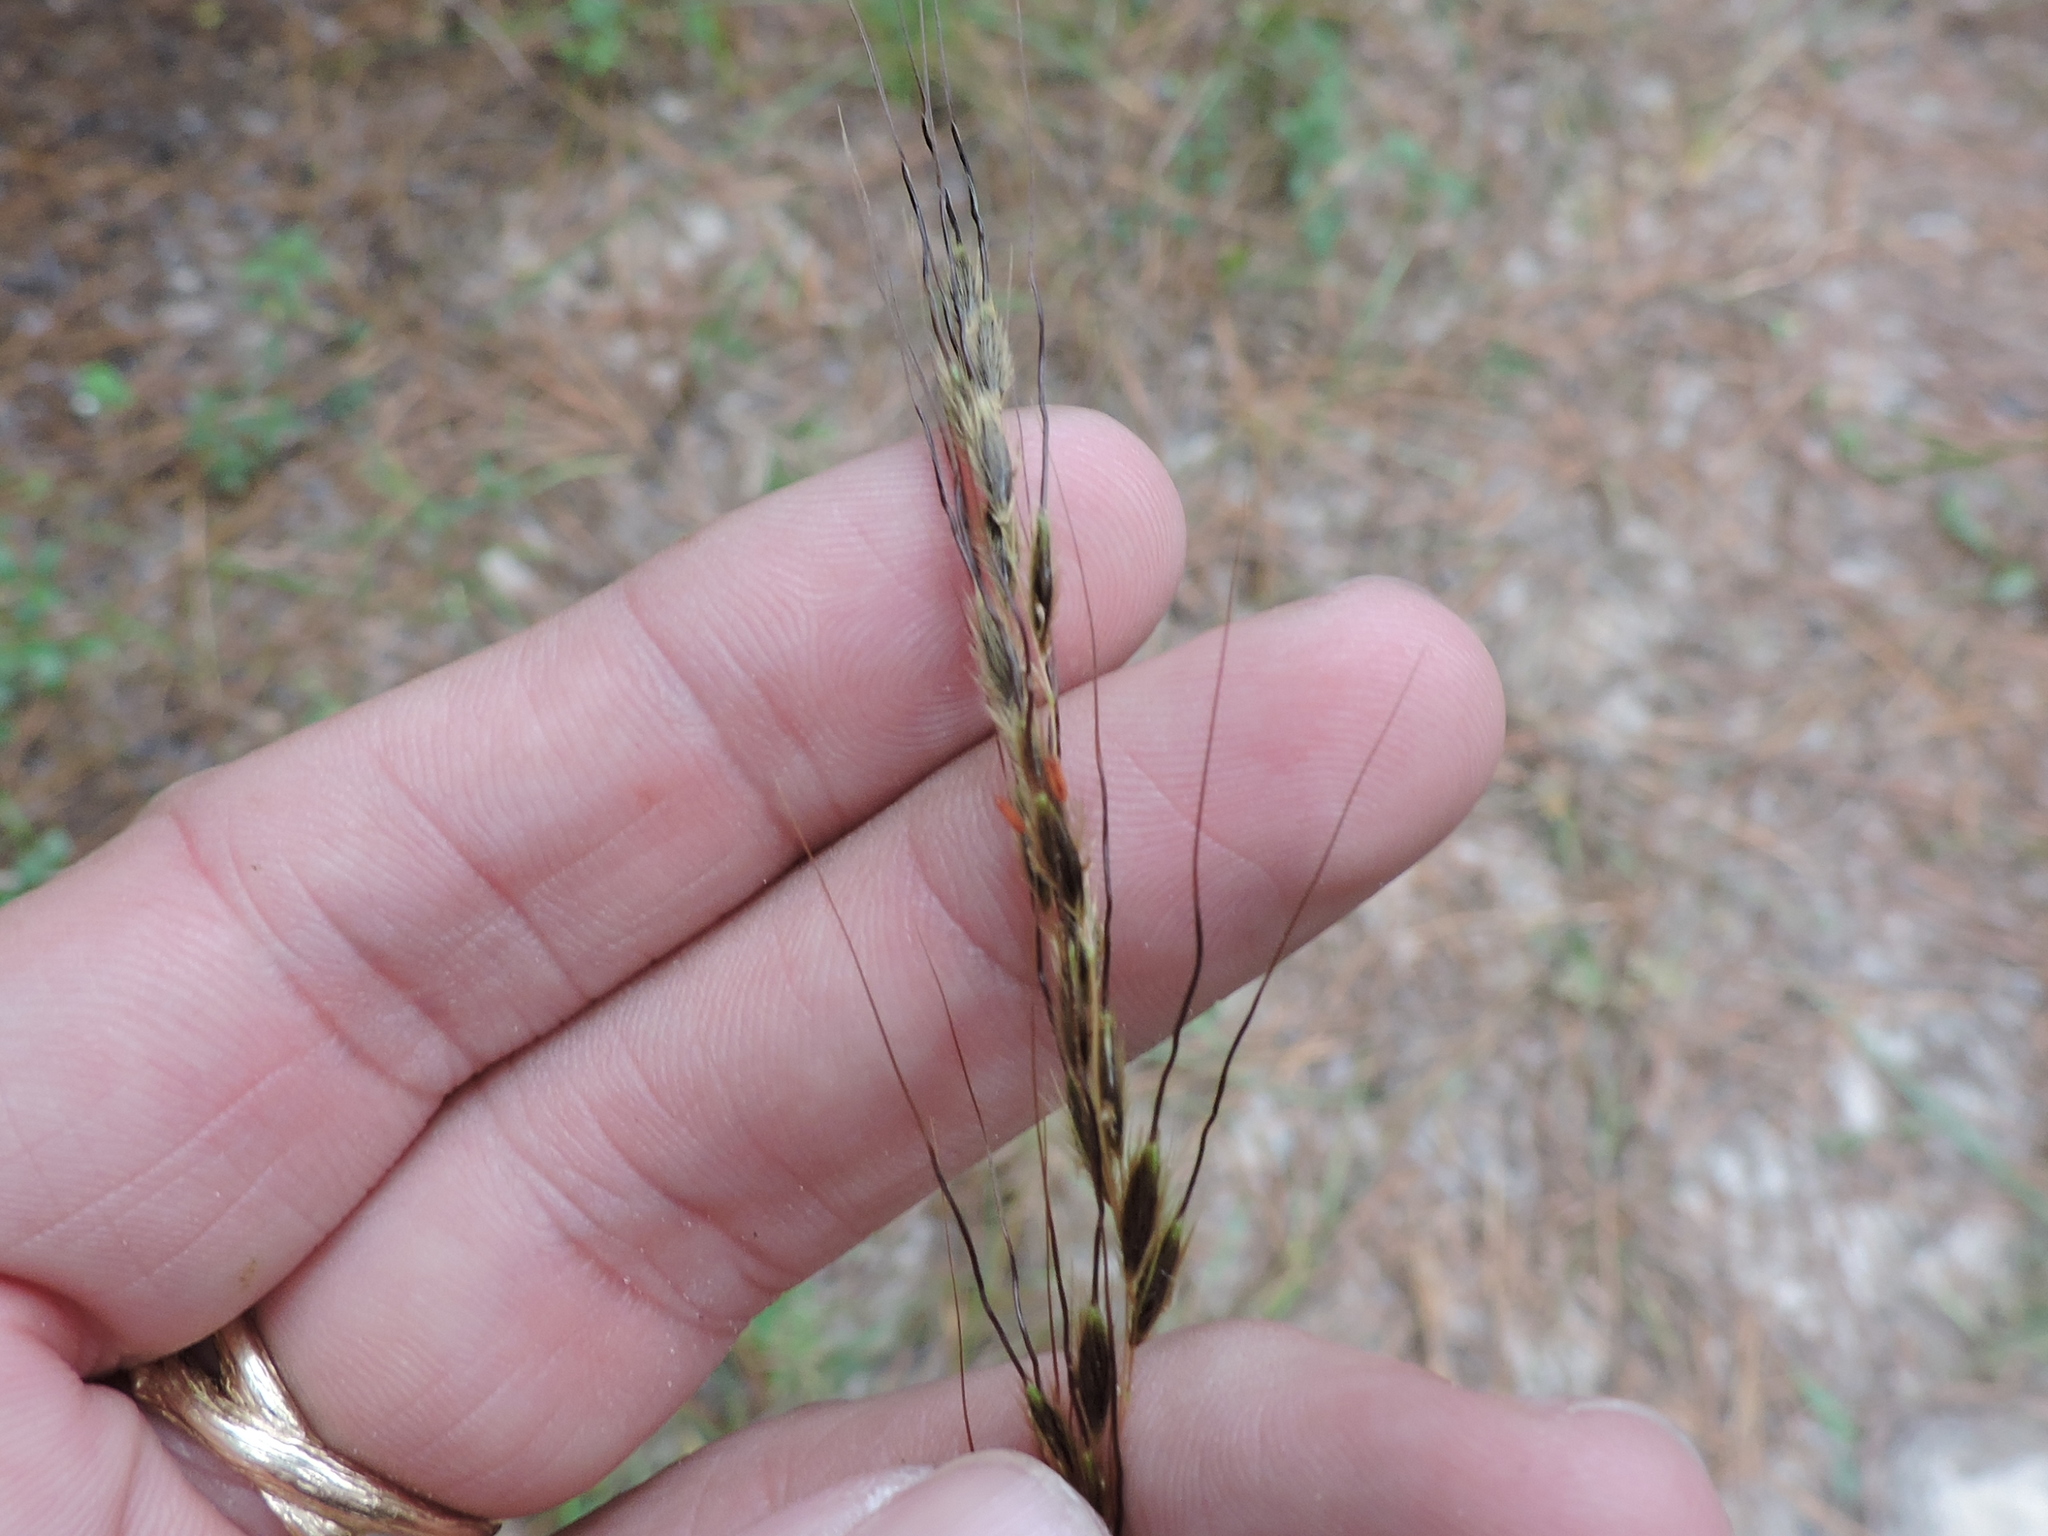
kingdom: Plantae
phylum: Tracheophyta
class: Liliopsida
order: Poales
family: Poaceae
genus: Sorghastrum
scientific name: Sorghastrum elliottii
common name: Slender indian grass
